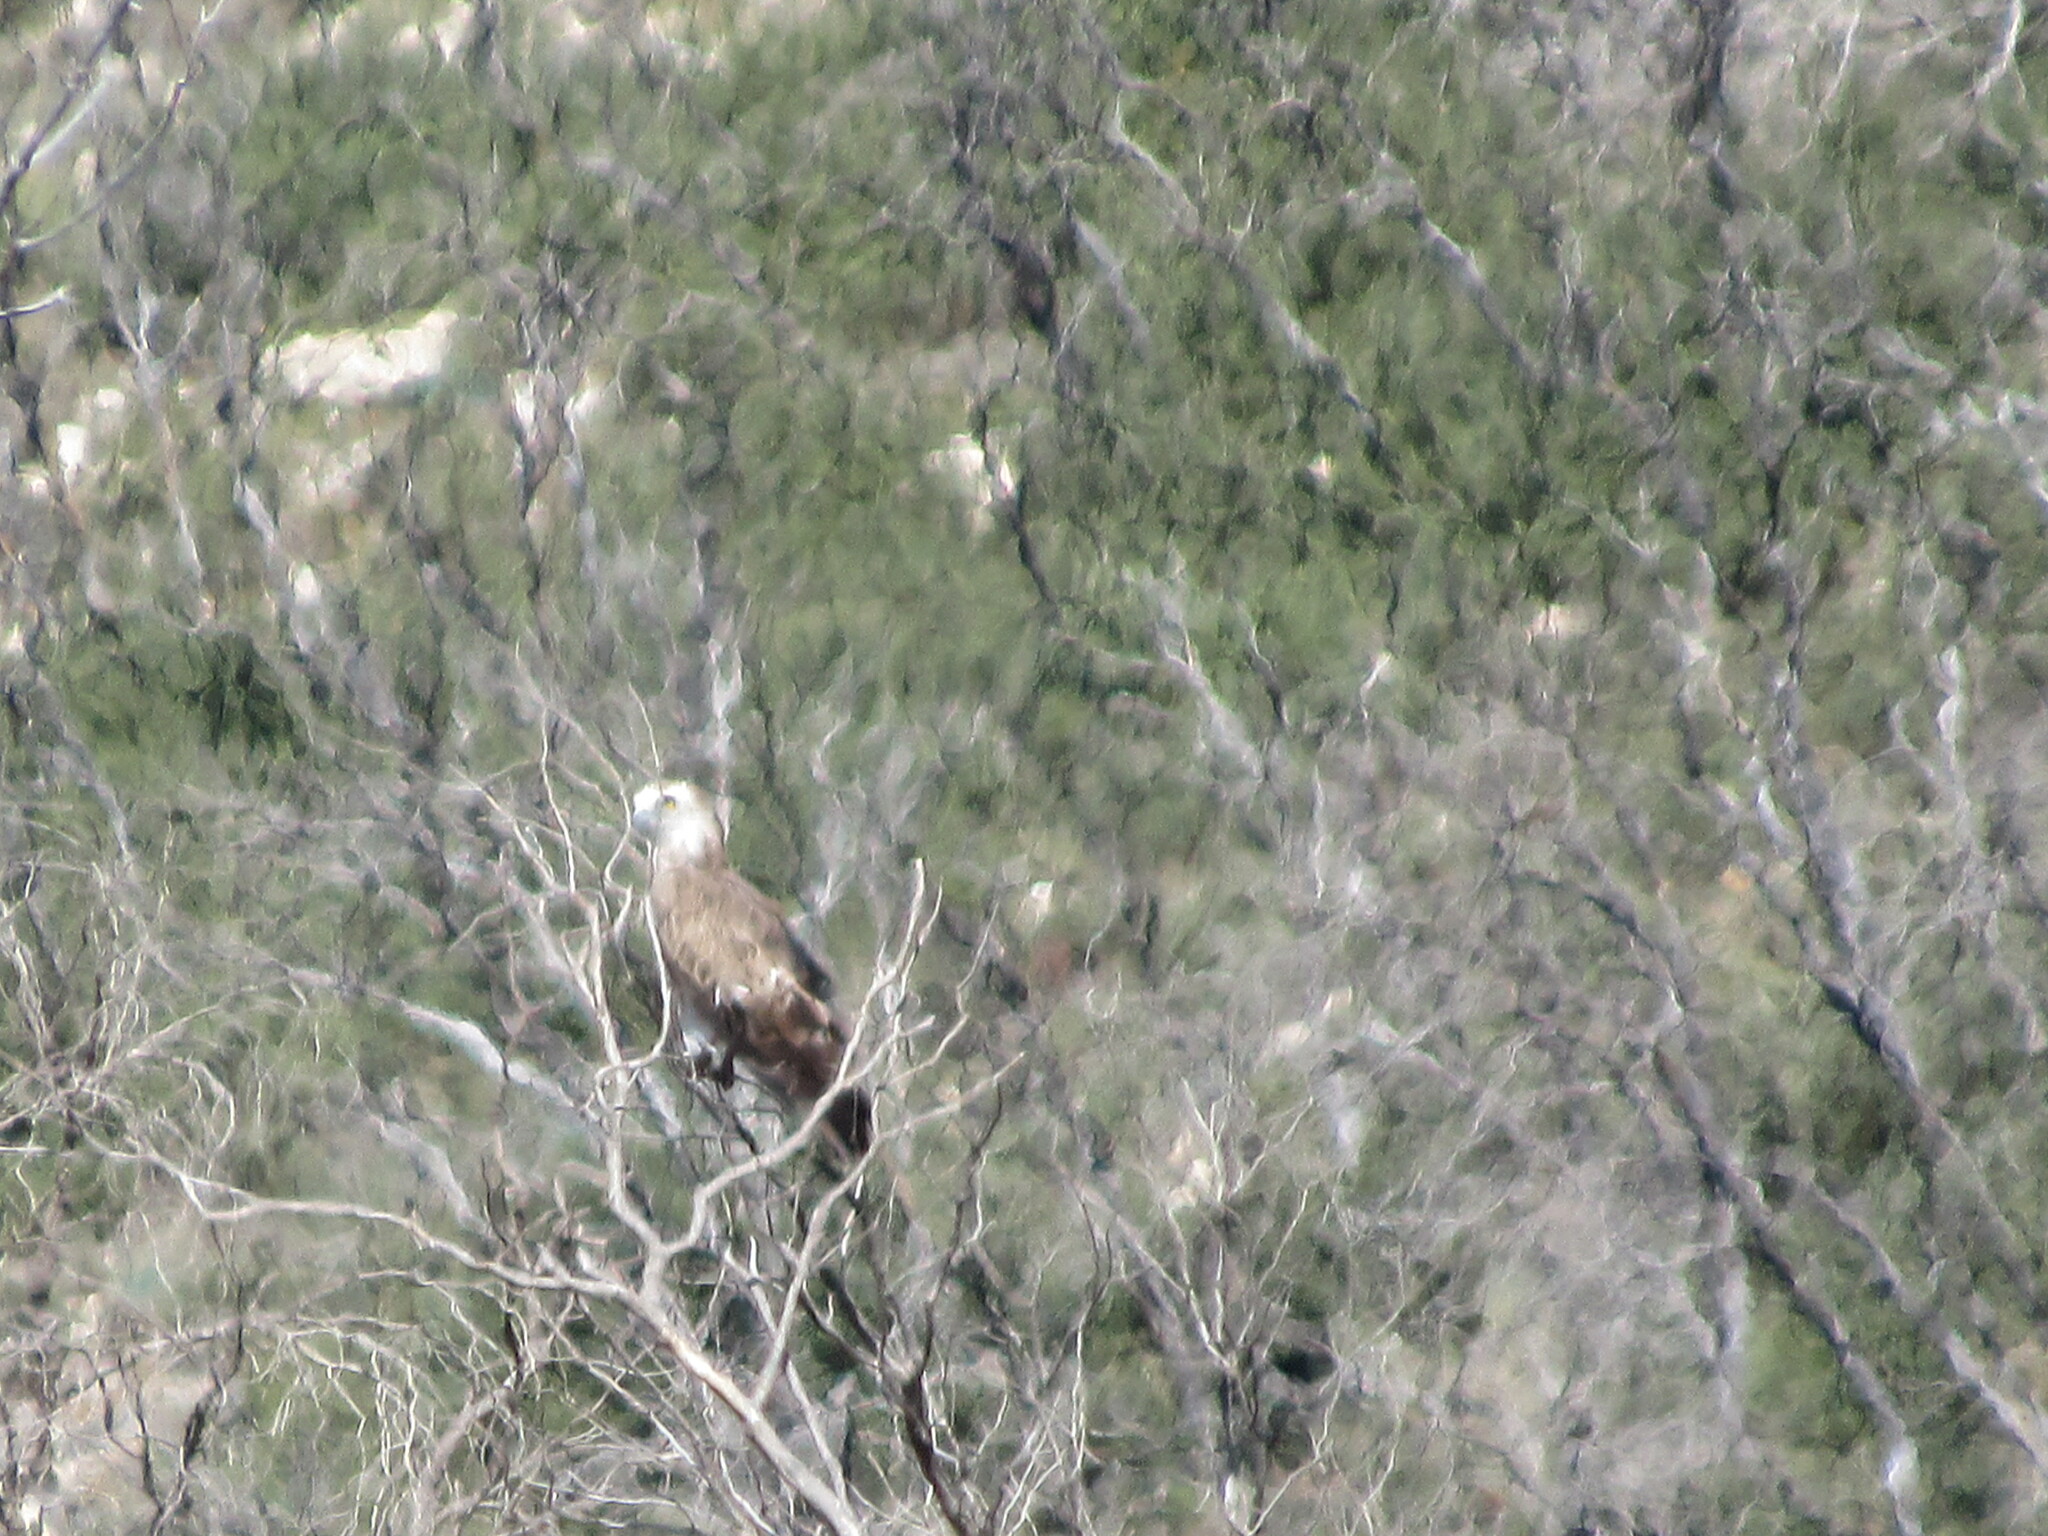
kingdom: Animalia
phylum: Chordata
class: Aves
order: Accipitriformes
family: Accipitridae
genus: Circaetus
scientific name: Circaetus gallicus
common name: Short-toed snake eagle
